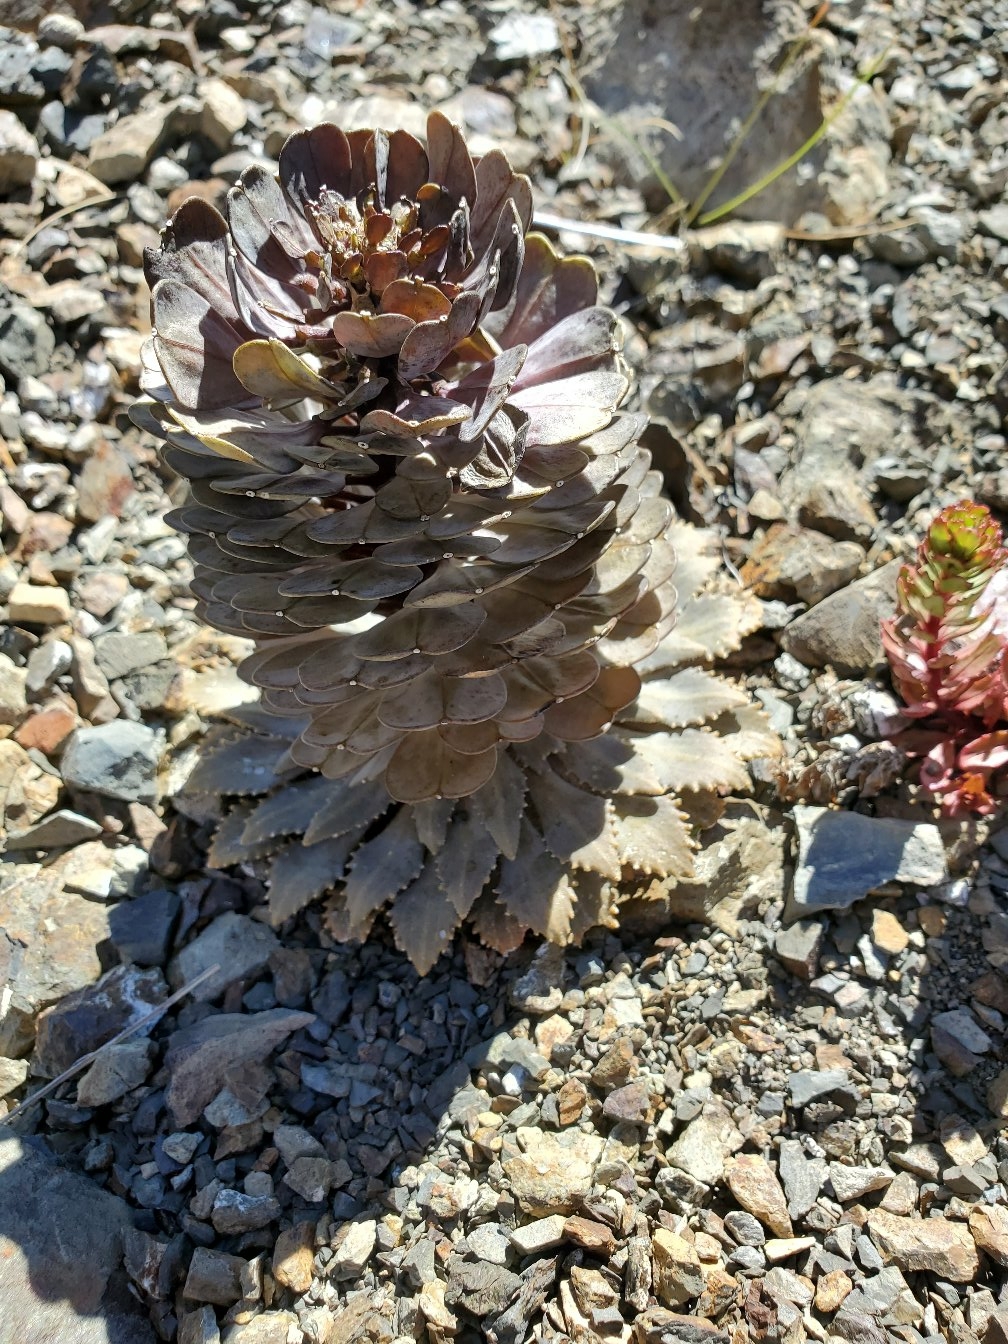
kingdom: Plantae
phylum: Tracheophyta
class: Magnoliopsida
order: Brassicales
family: Brassicaceae
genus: Notothlaspi
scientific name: Notothlaspi rosulatum
